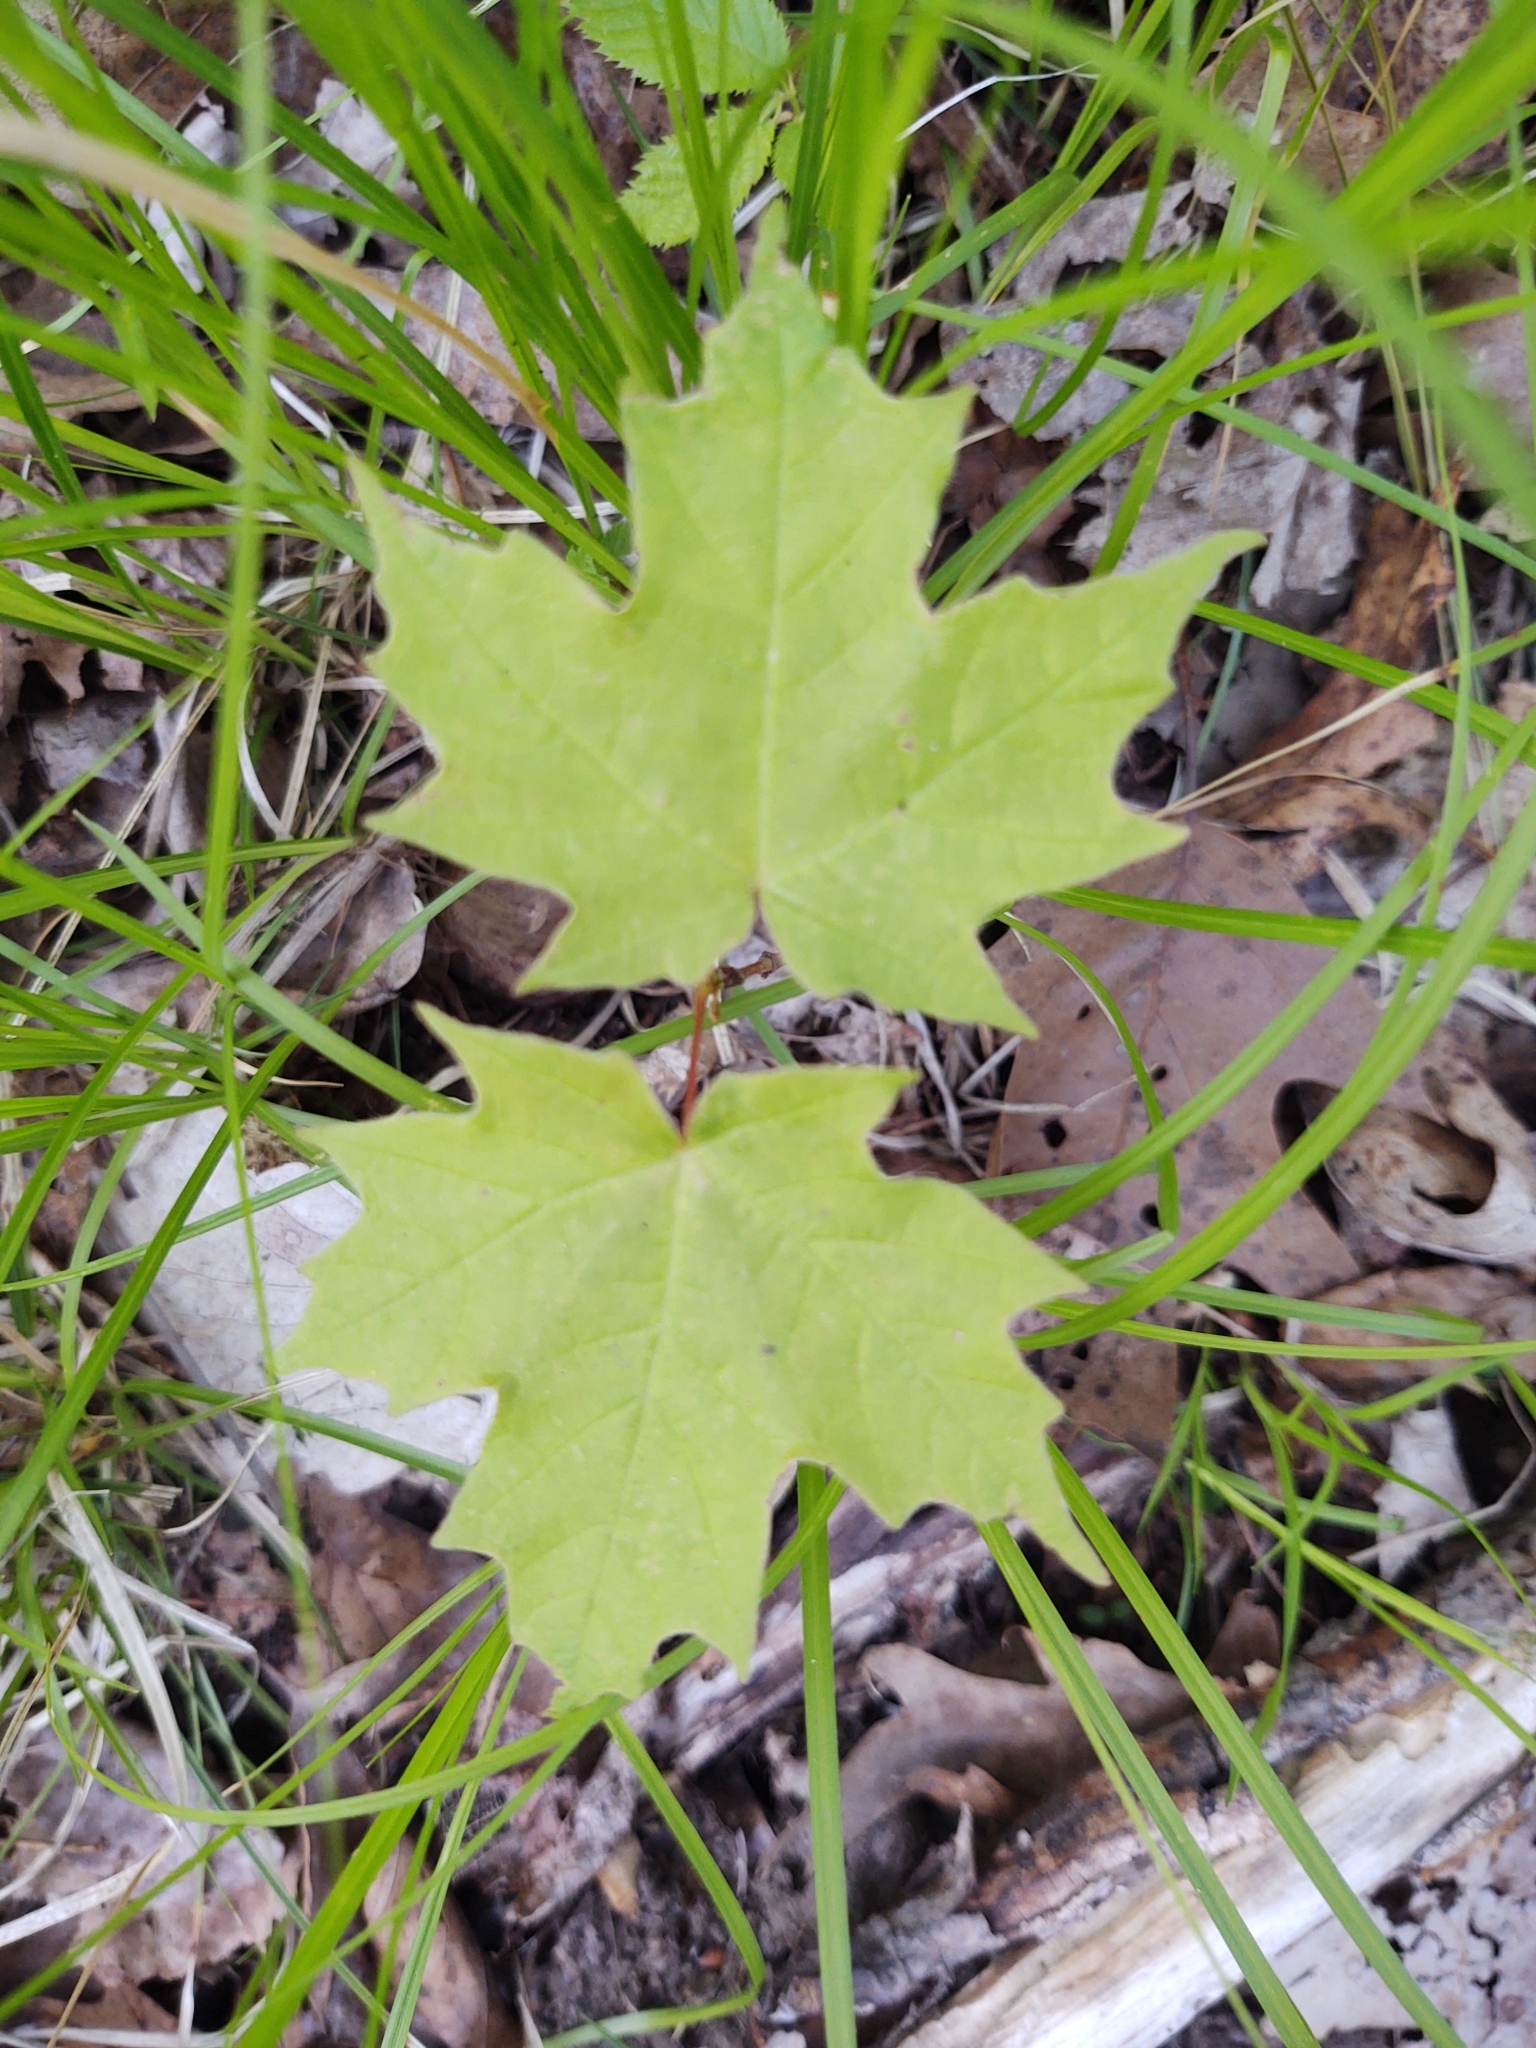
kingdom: Plantae
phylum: Tracheophyta
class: Magnoliopsida
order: Sapindales
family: Sapindaceae
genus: Acer
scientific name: Acer saccharum
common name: Sugar maple
